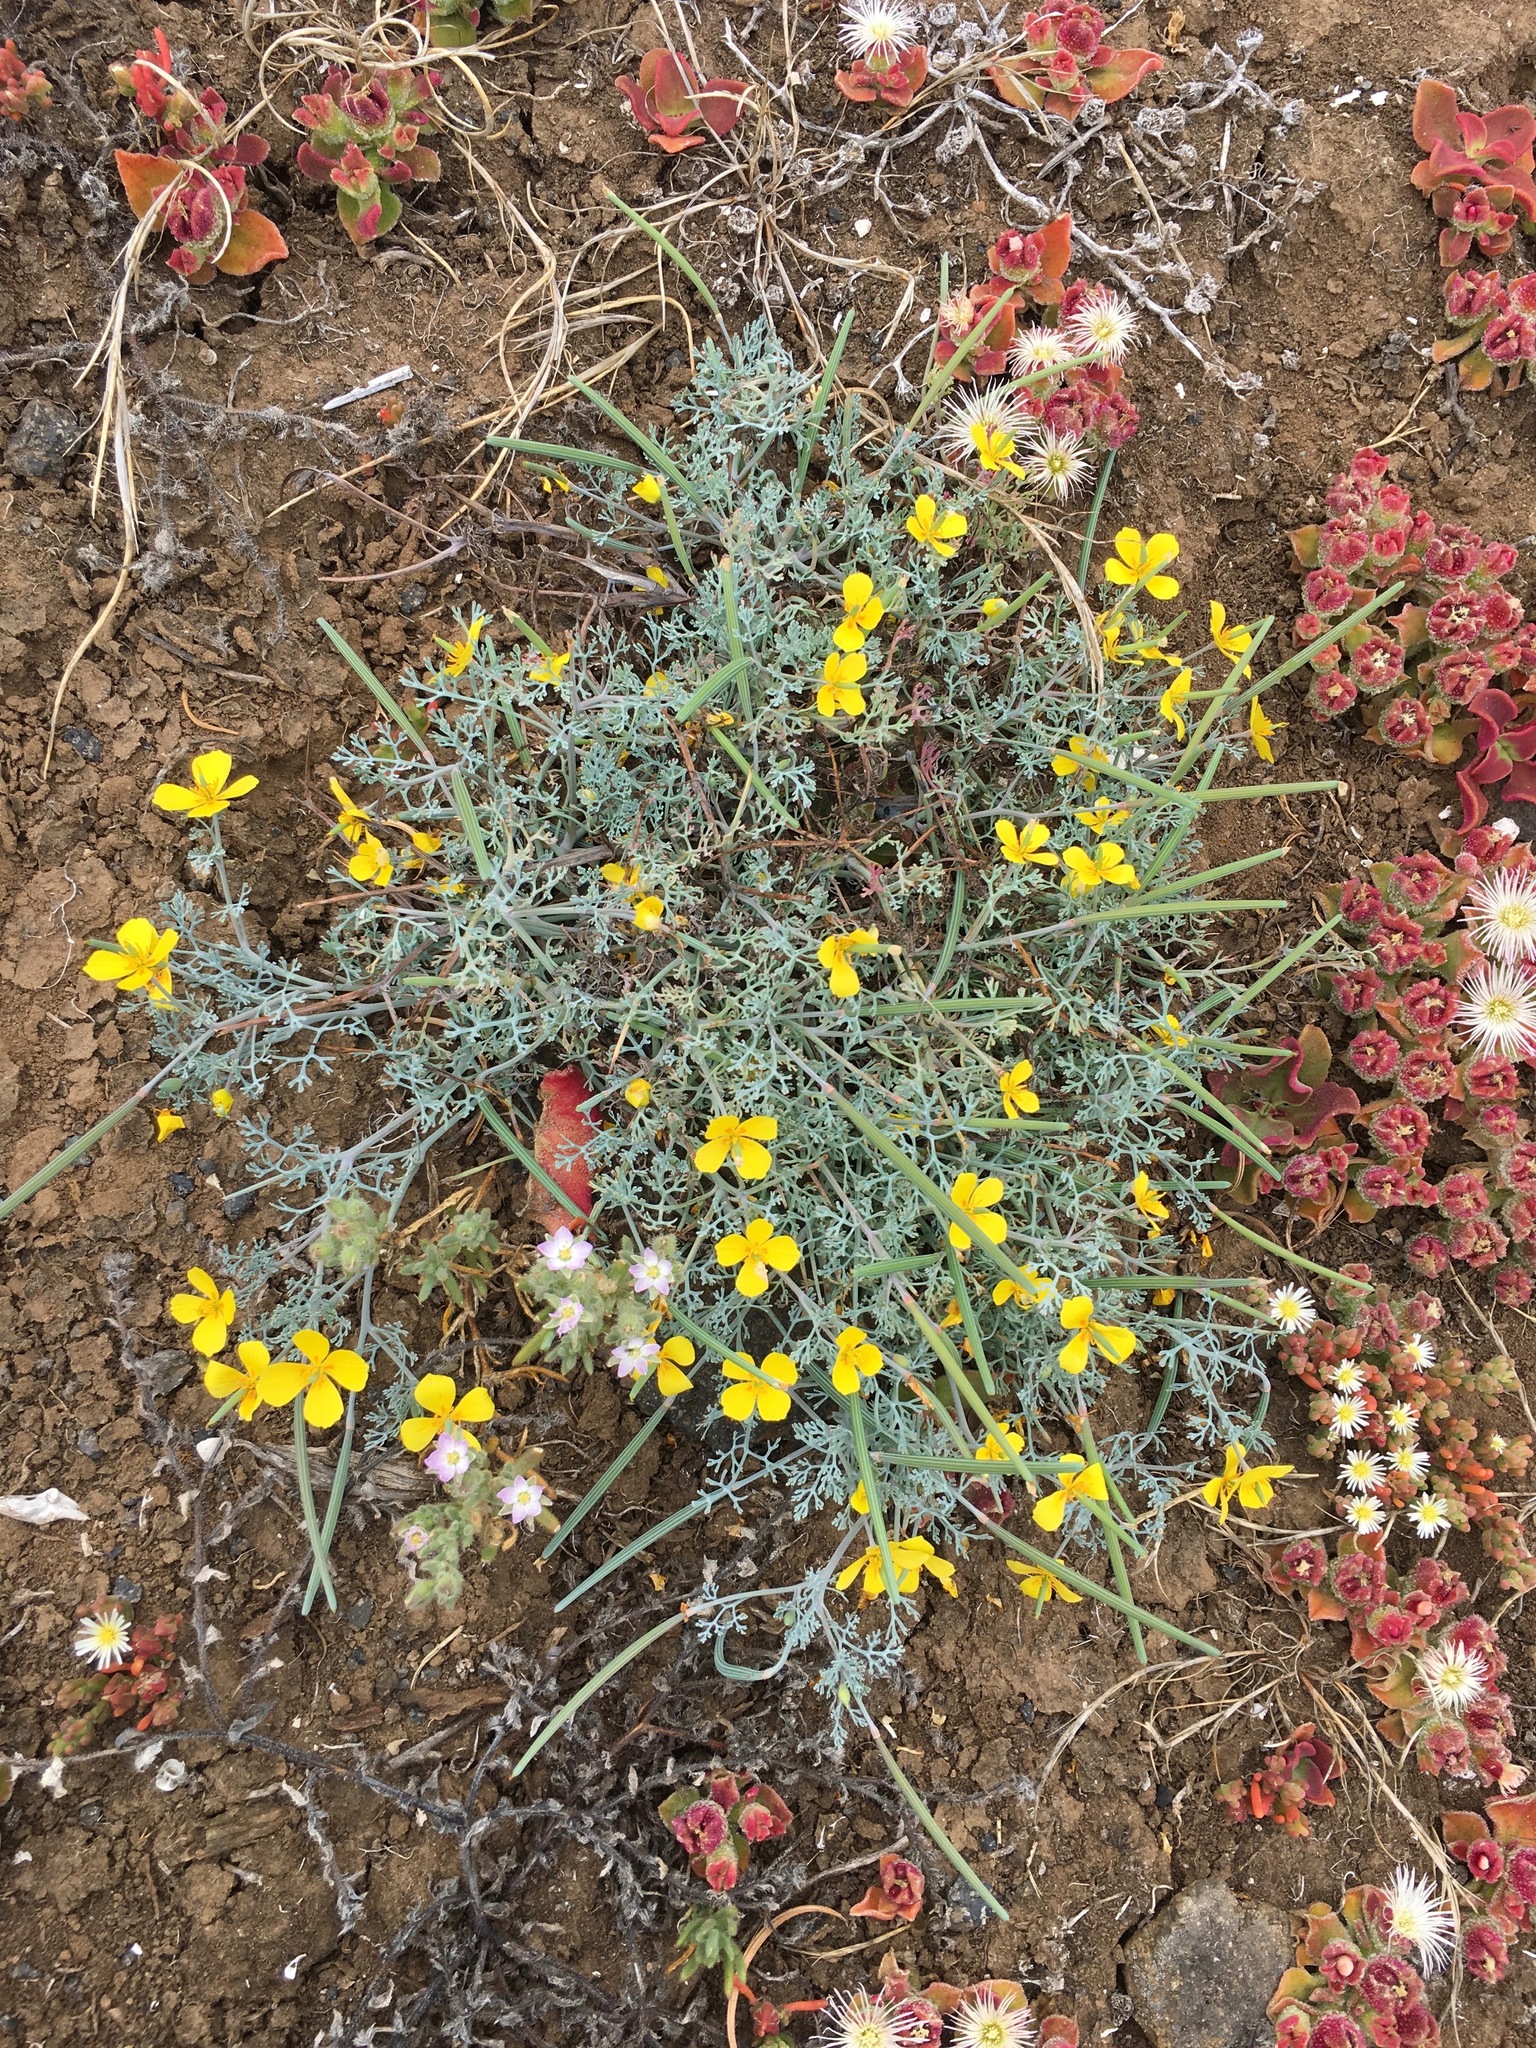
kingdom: Plantae
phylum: Tracheophyta
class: Magnoliopsida
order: Ranunculales
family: Papaveraceae
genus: Eschscholzia
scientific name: Eschscholzia ramosa
